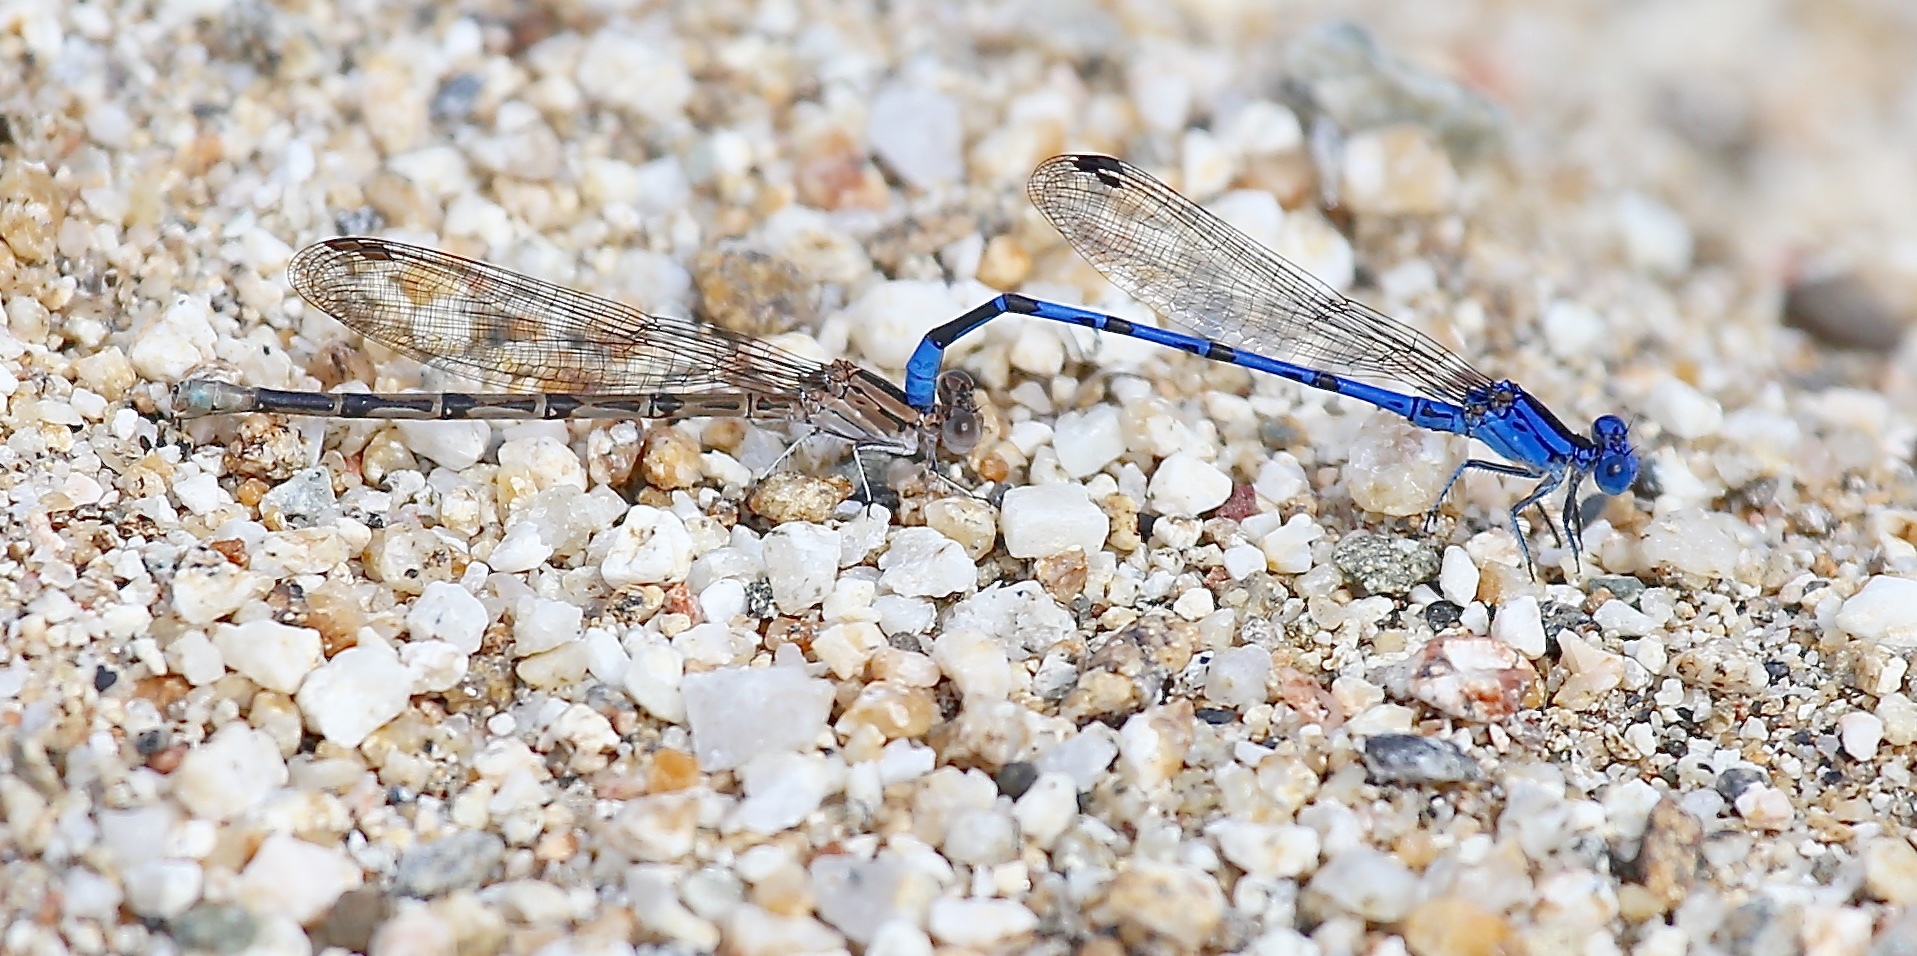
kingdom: Animalia
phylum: Arthropoda
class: Insecta
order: Odonata
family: Coenagrionidae
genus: Argia
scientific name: Argia vivida
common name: Vivid dancer
